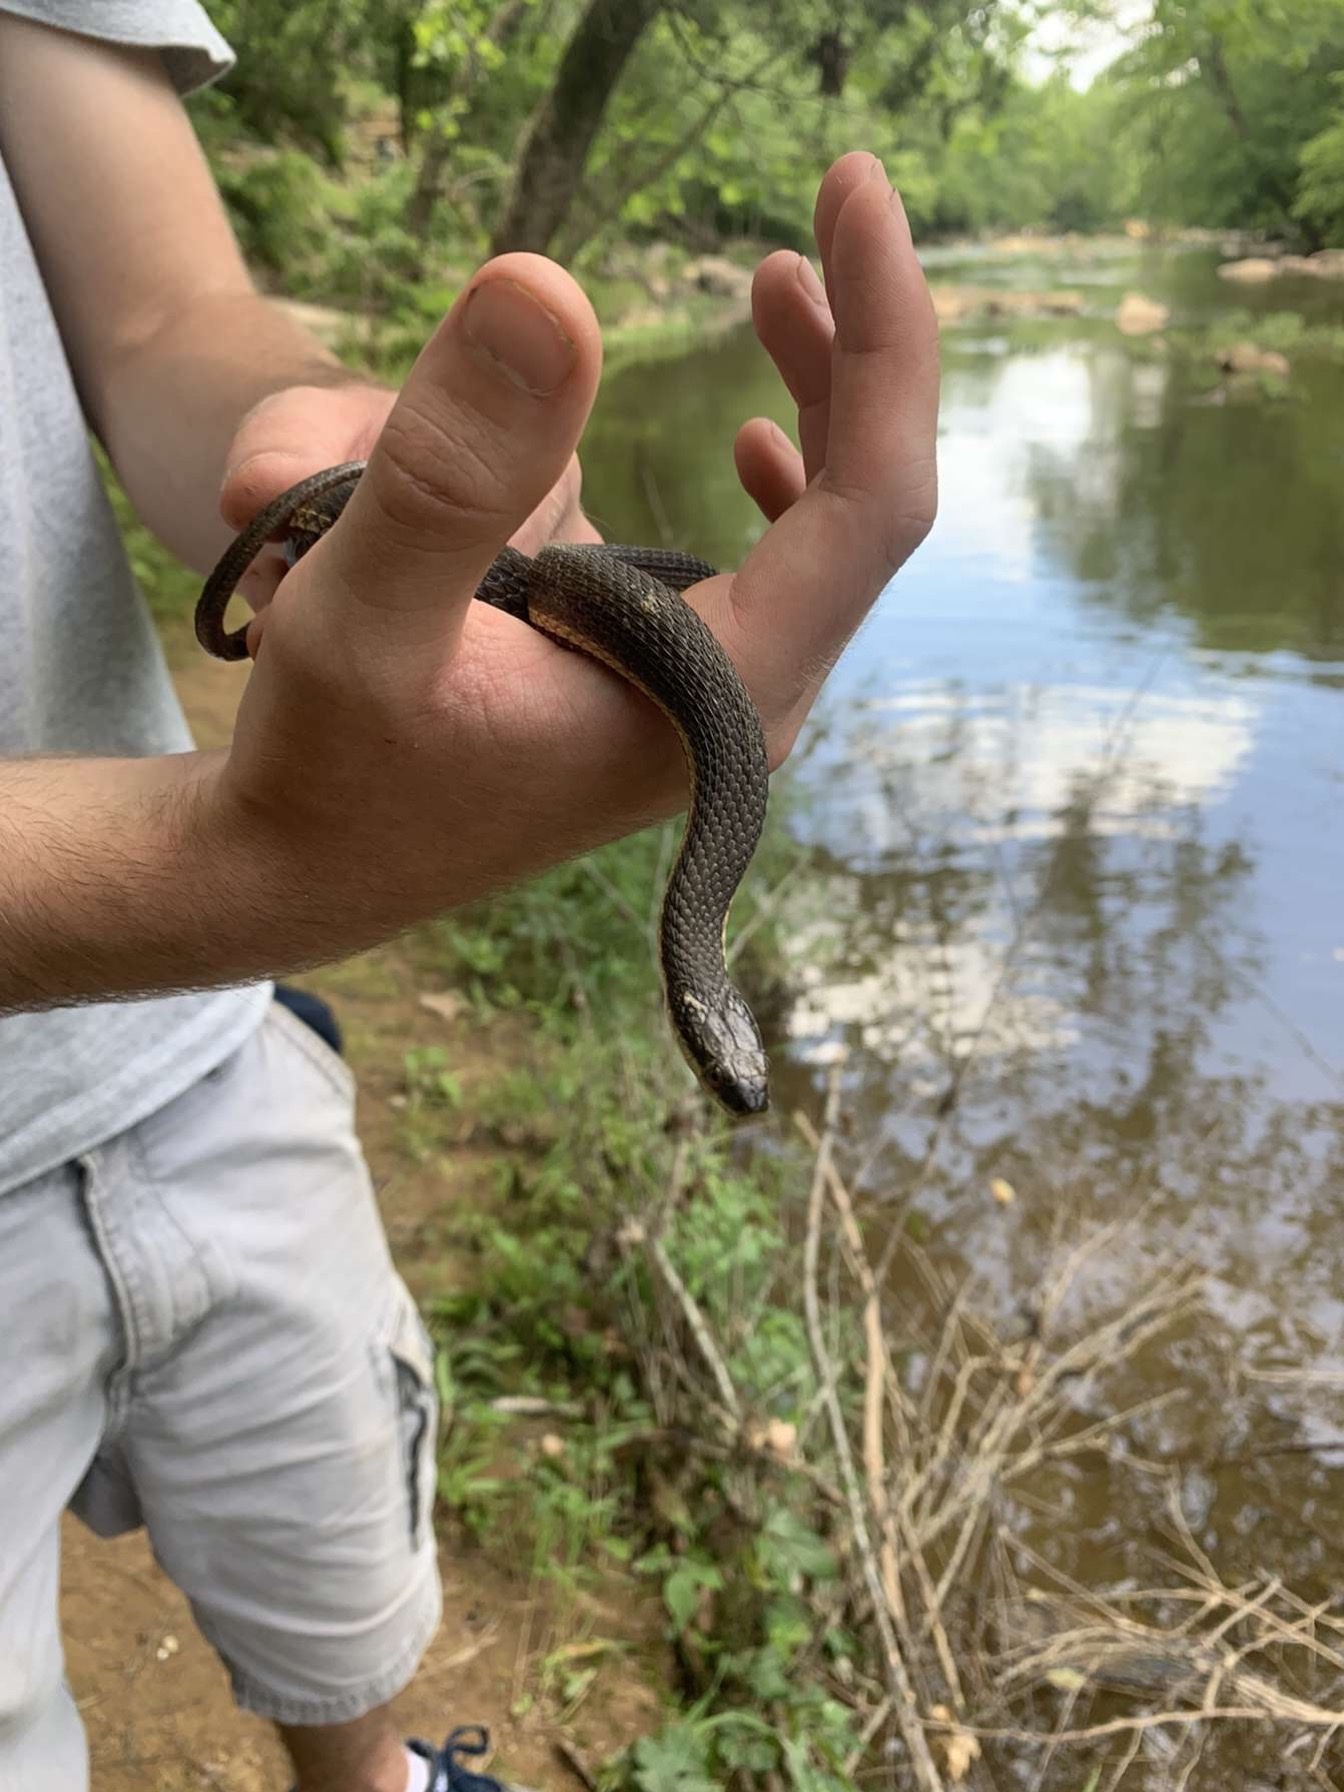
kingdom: Animalia
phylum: Chordata
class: Squamata
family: Colubridae
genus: Regina
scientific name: Regina septemvittata
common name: Queen snake
